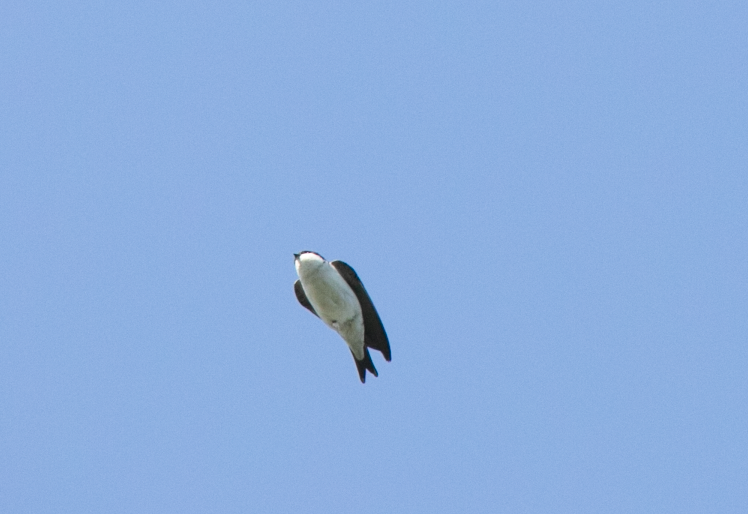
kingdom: Animalia
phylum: Chordata
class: Aves
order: Passeriformes
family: Hirundinidae
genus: Delichon
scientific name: Delichon urbicum
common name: Common house martin
